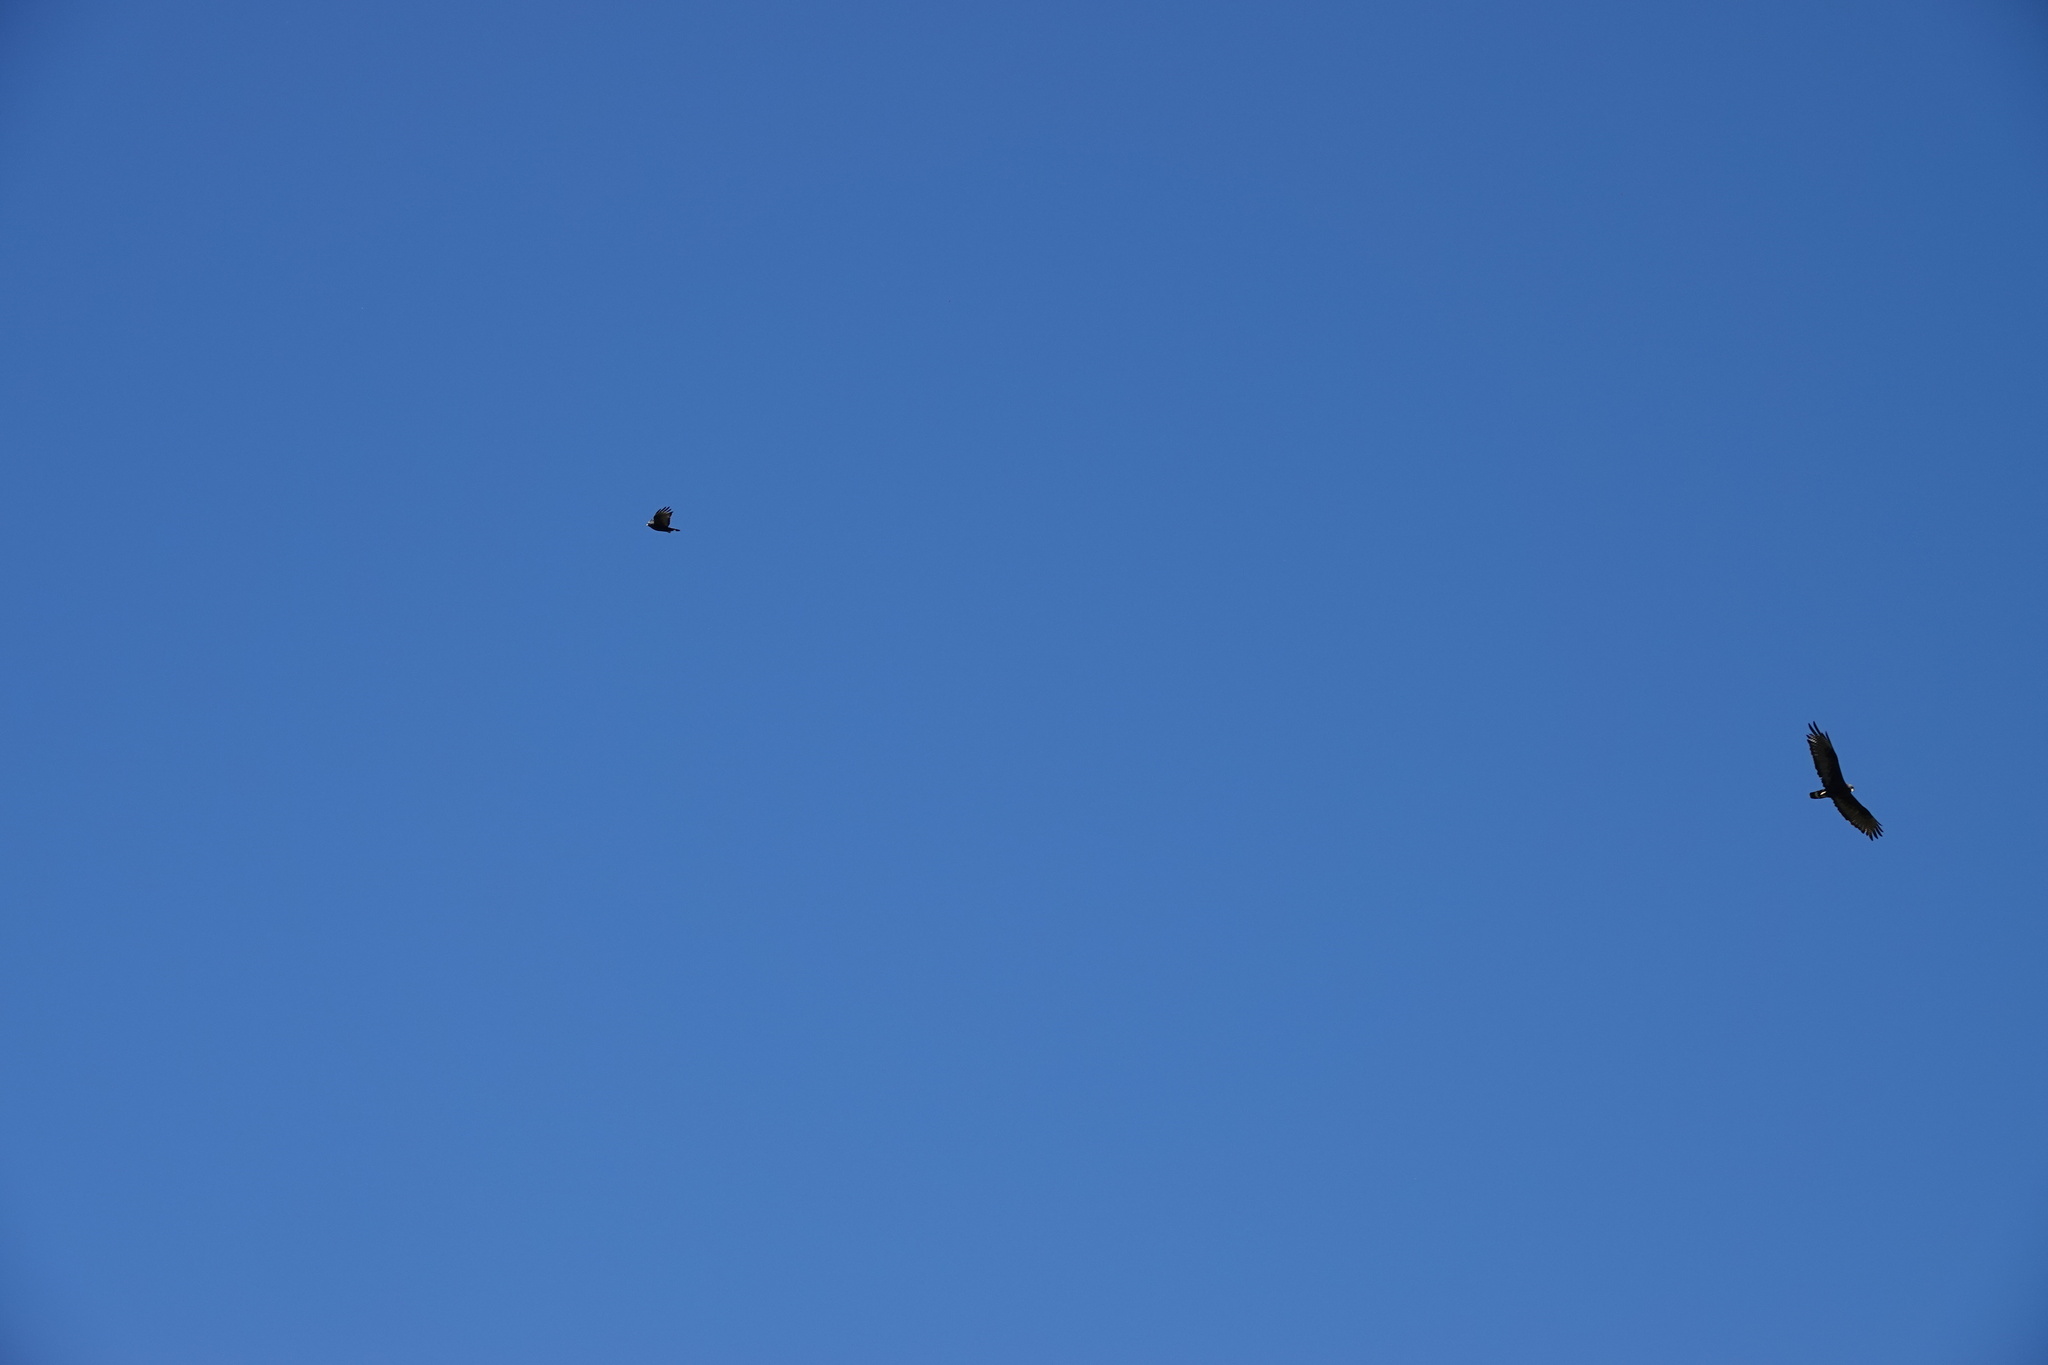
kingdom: Animalia
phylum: Chordata
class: Aves
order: Accipitriformes
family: Accipitridae
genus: Buteo
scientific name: Buteo albonotatus
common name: Zone-tailed hawk
